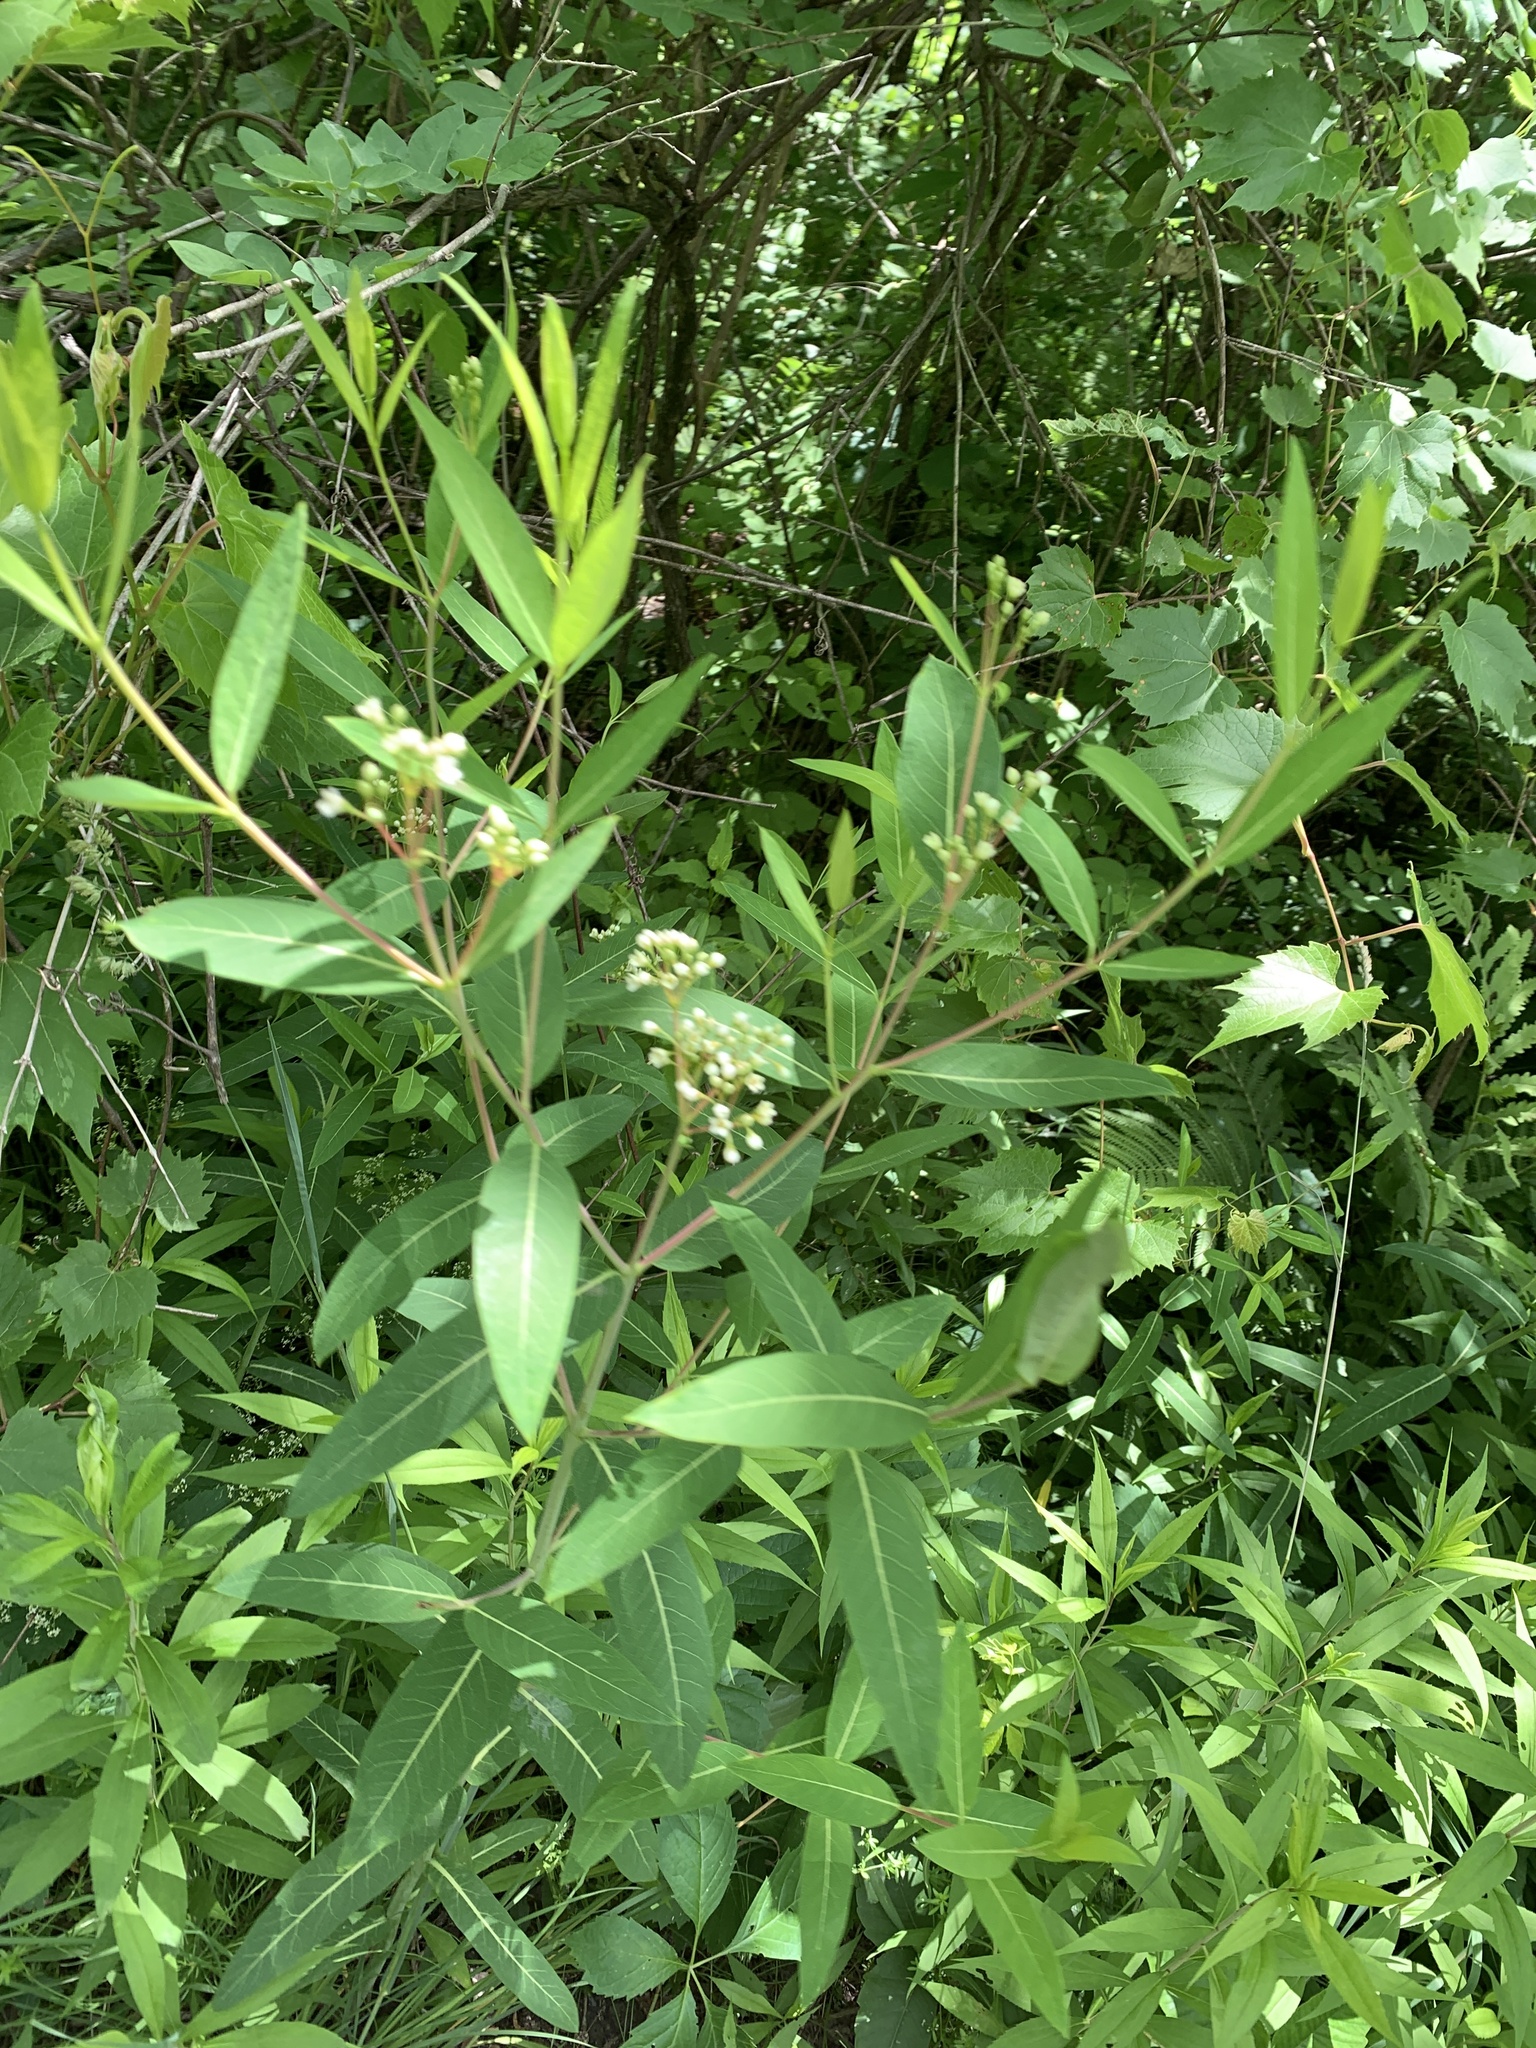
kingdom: Plantae
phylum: Tracheophyta
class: Magnoliopsida
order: Gentianales
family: Apocynaceae
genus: Apocynum
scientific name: Apocynum cannabinum
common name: Hemp dogbane
